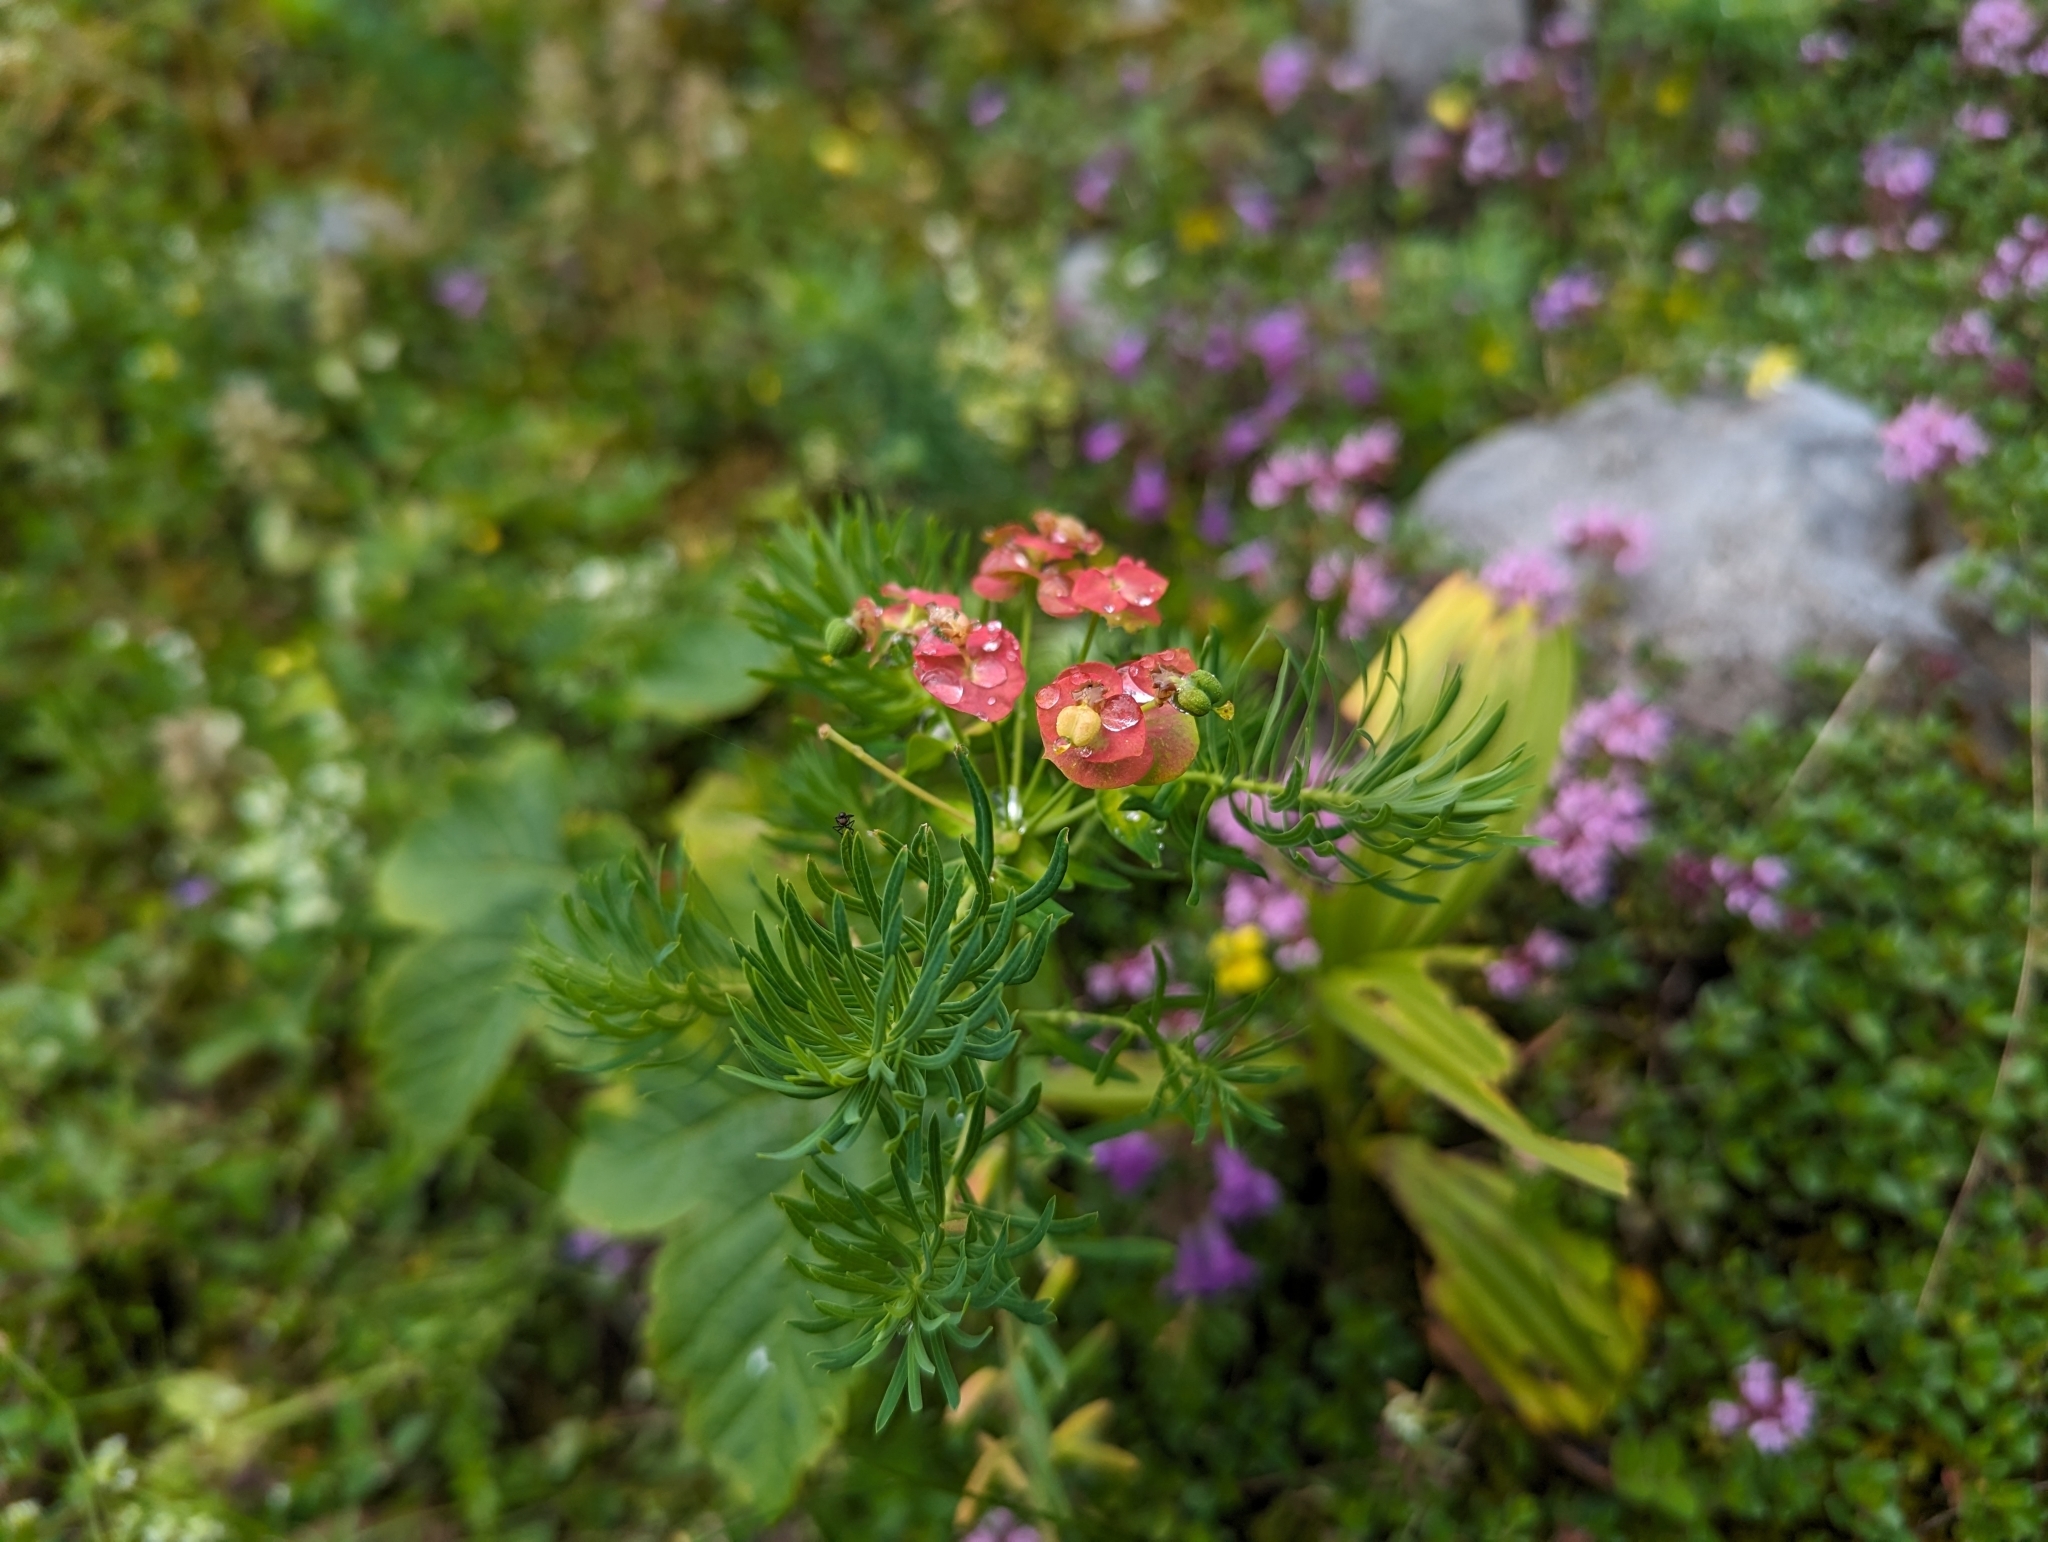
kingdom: Plantae
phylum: Tracheophyta
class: Magnoliopsida
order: Malpighiales
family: Euphorbiaceae
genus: Euphorbia
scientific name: Euphorbia cyparissias
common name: Cypress spurge
